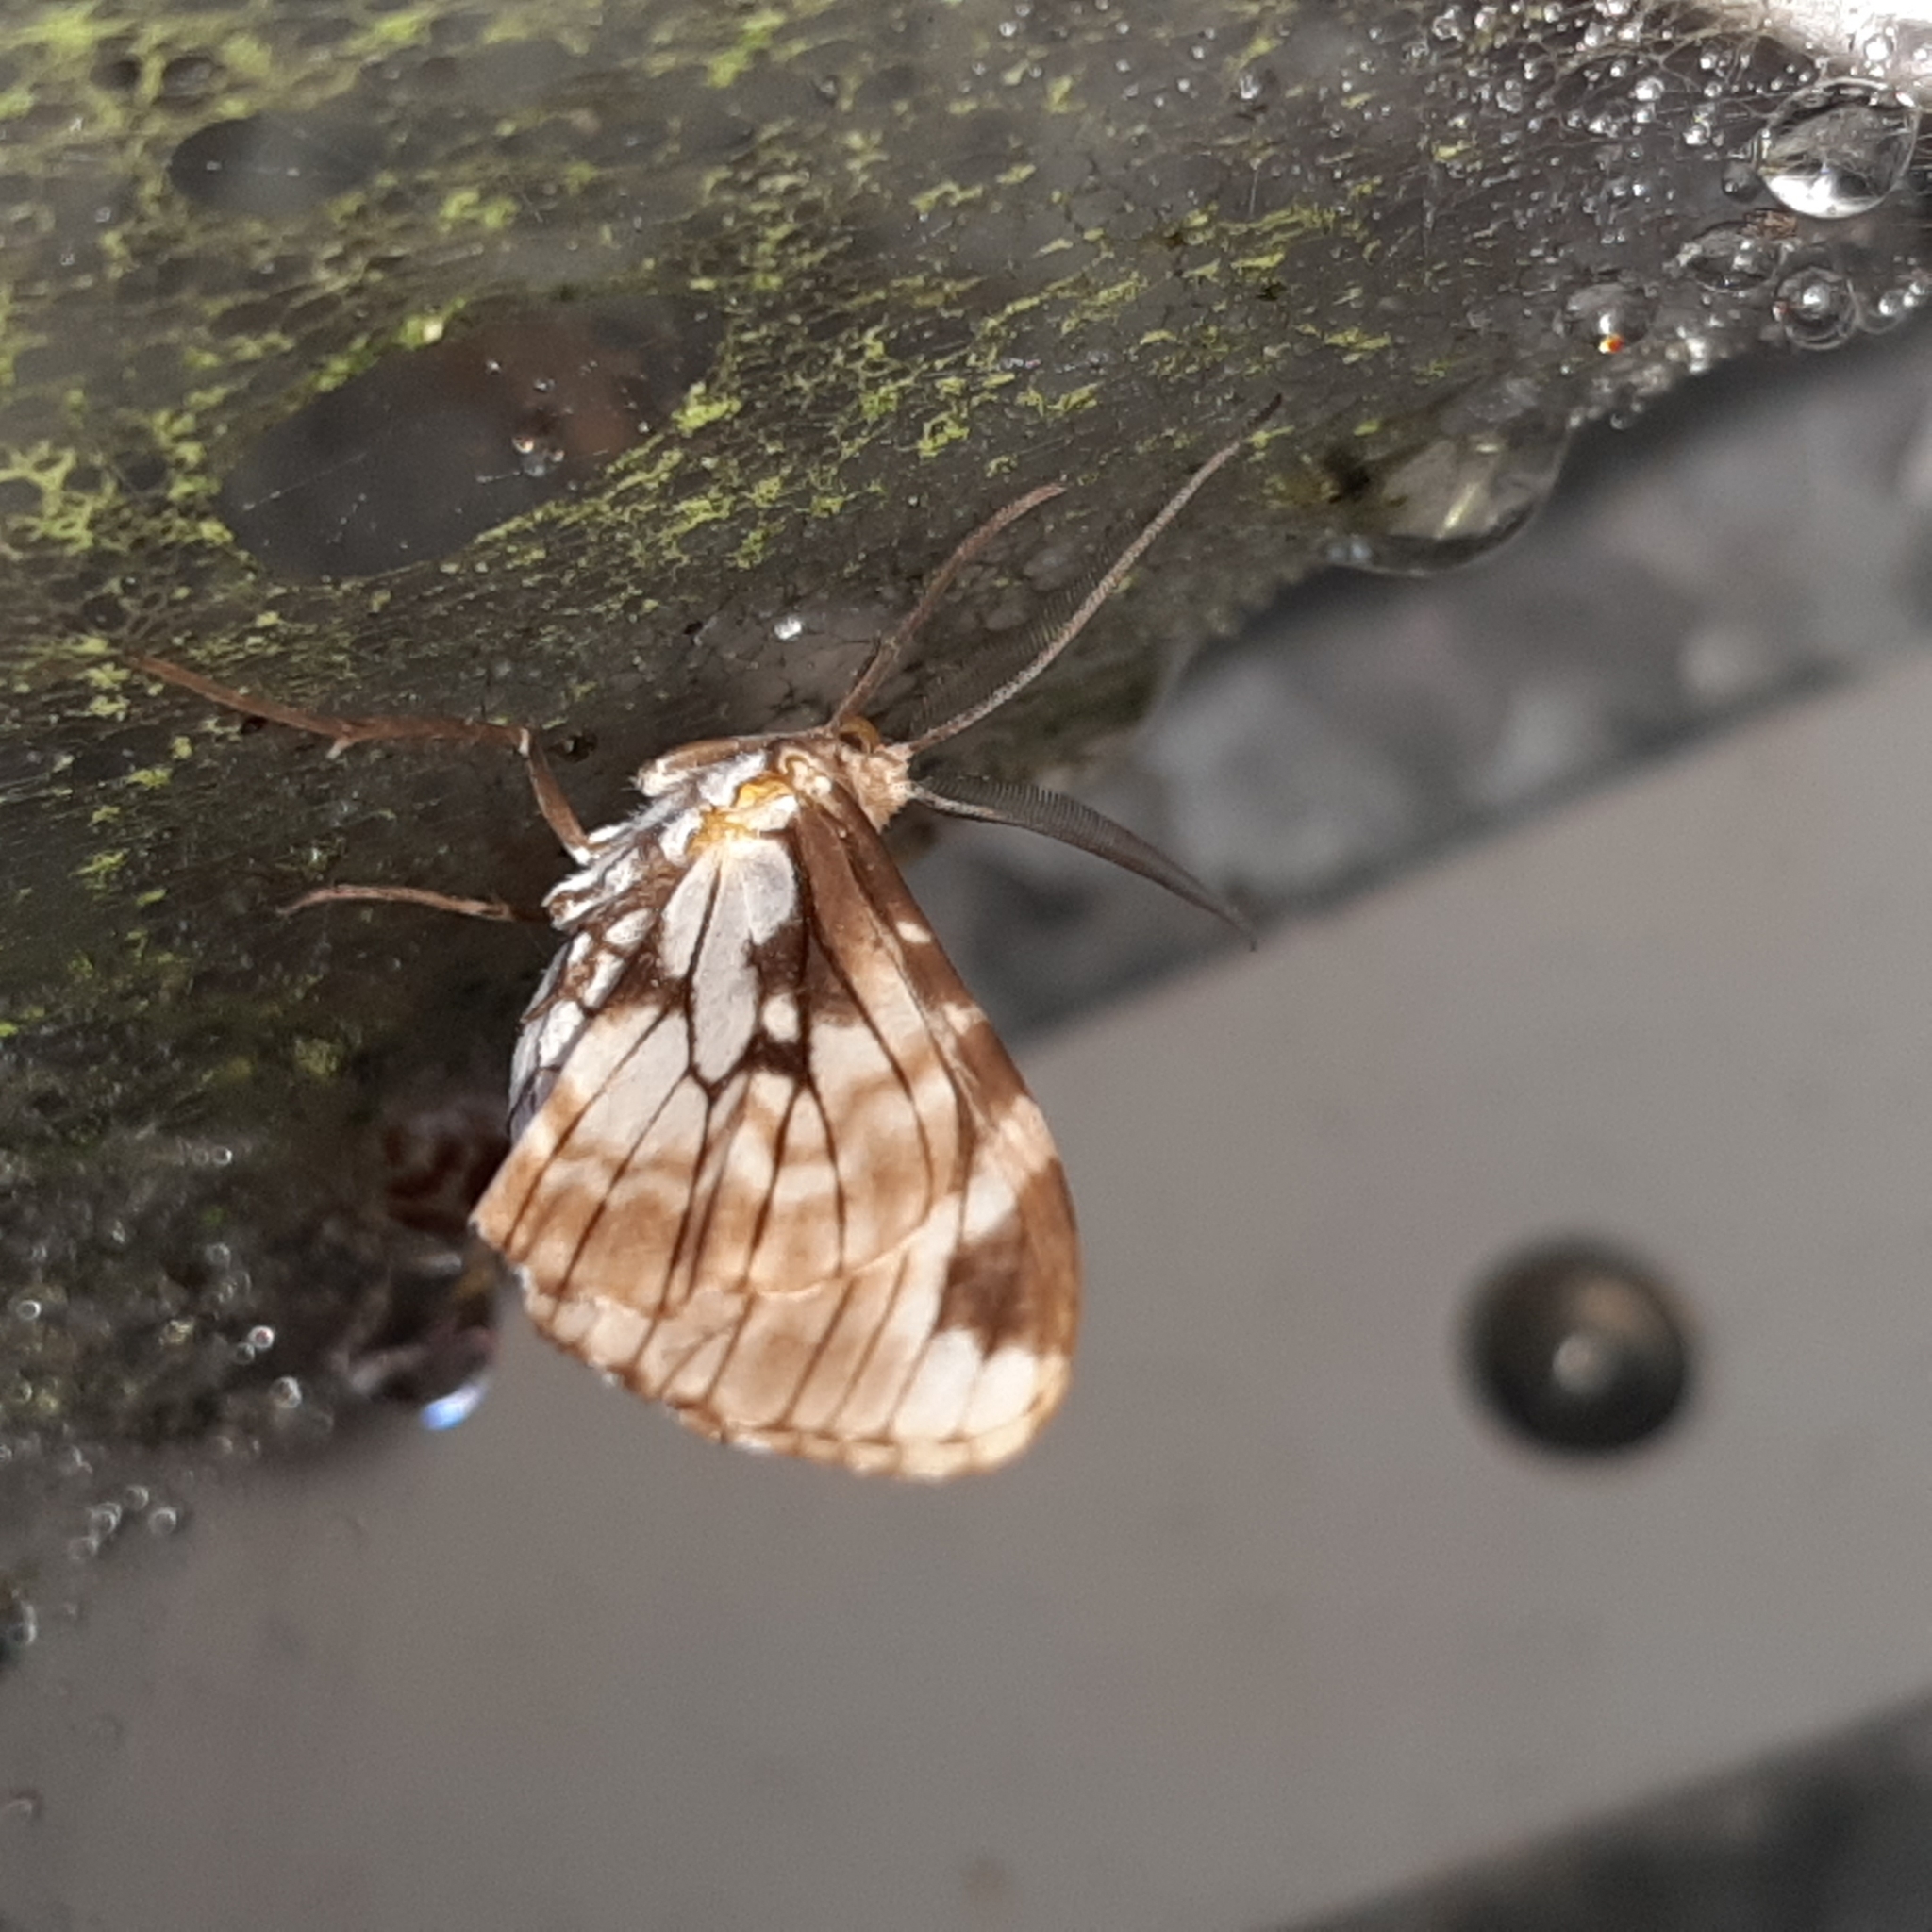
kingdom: Animalia
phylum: Arthropoda
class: Insecta
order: Lepidoptera
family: Geometridae
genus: Nephodia
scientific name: Nephodia organa
